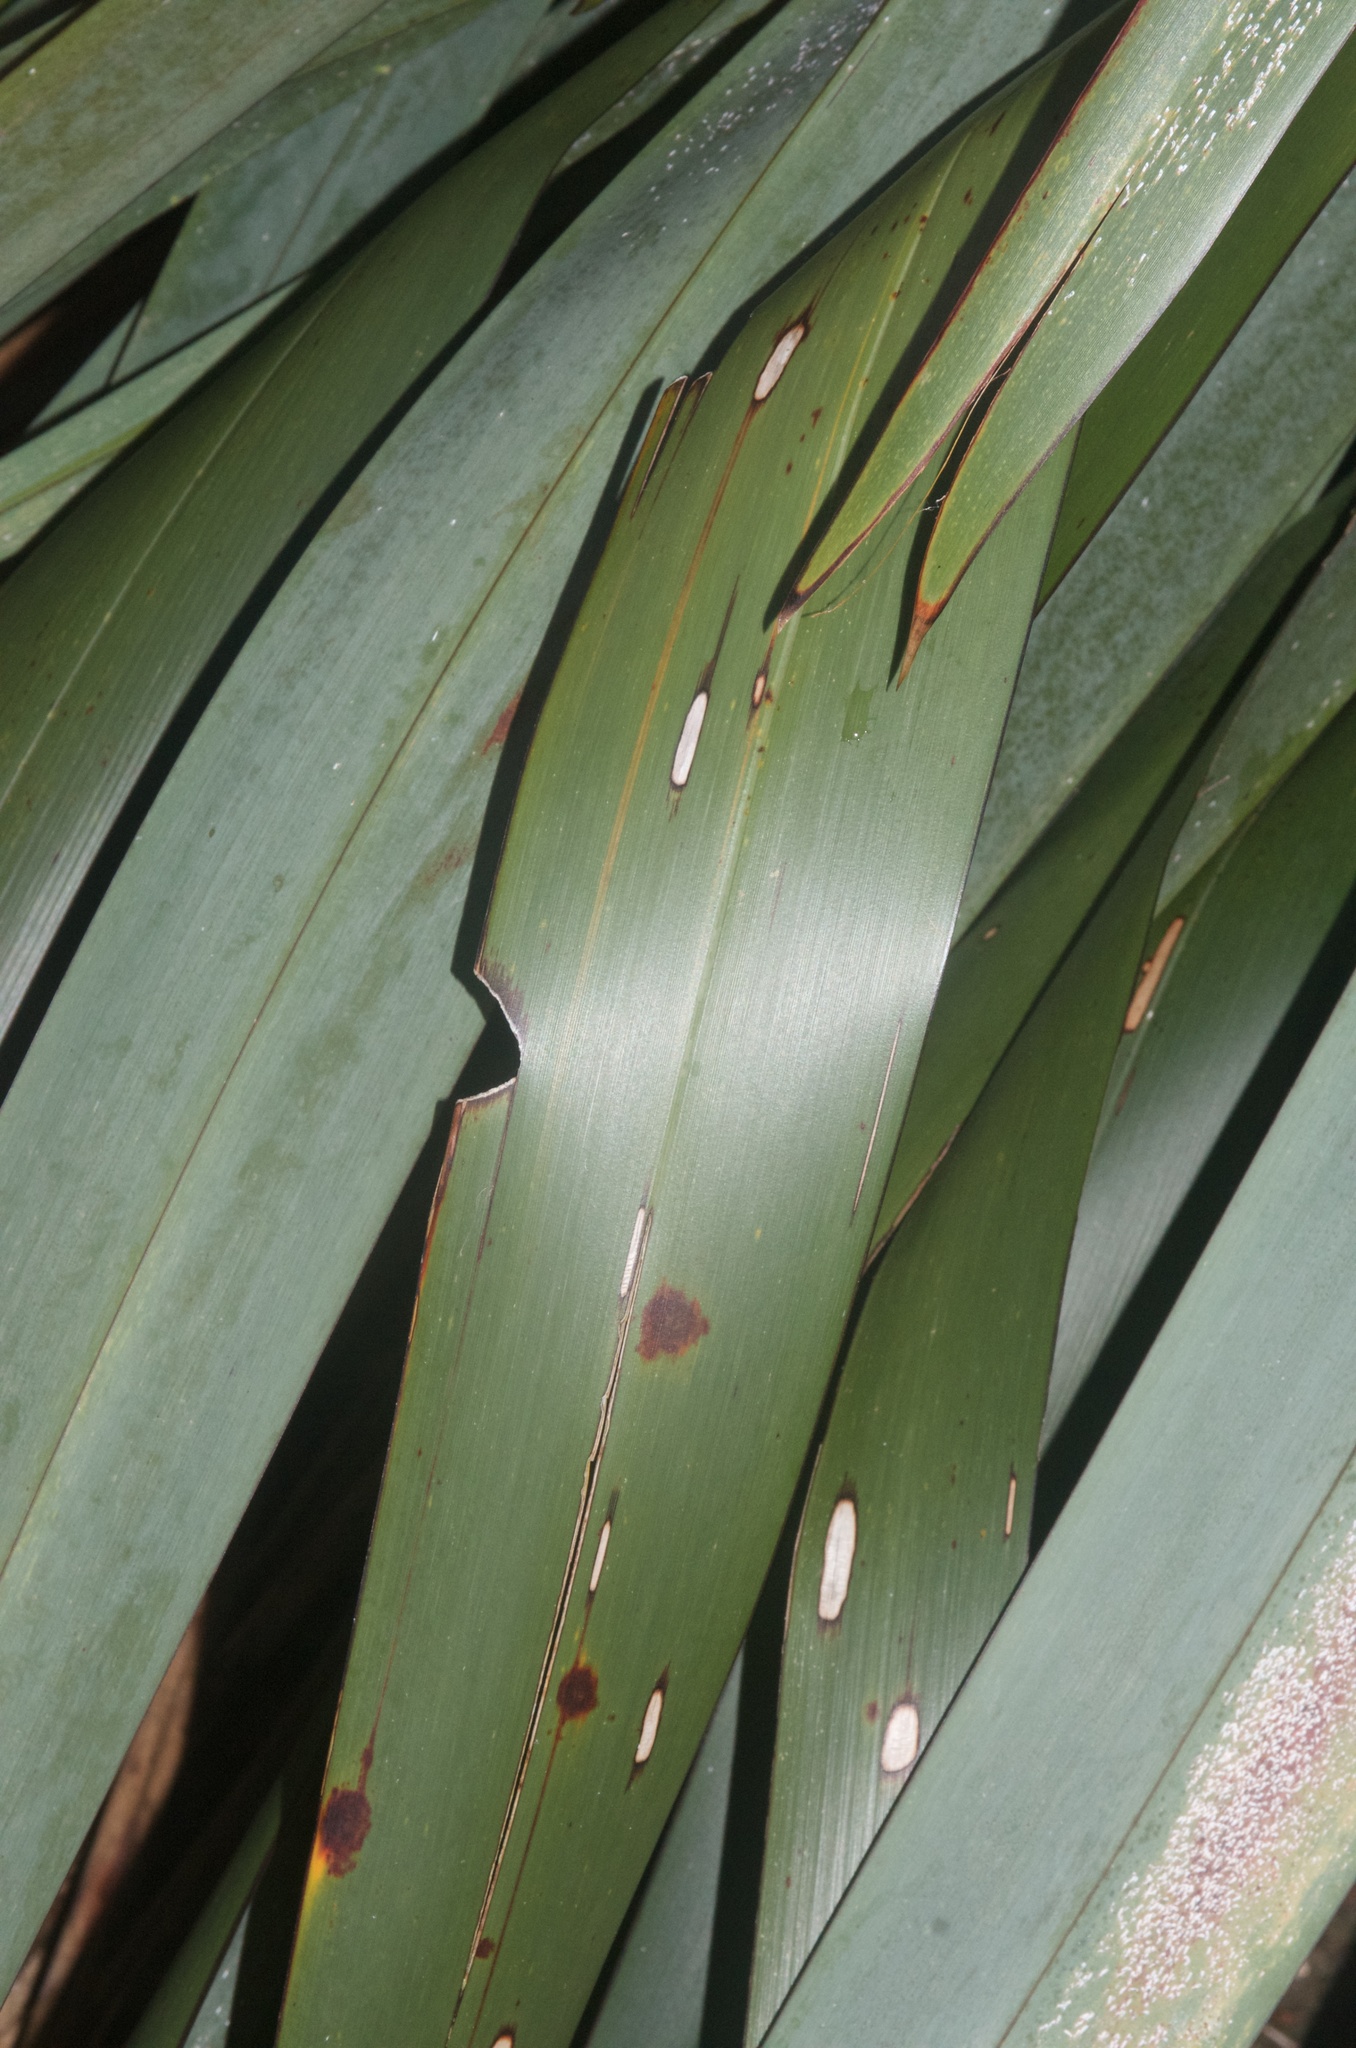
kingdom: Animalia
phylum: Arthropoda
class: Insecta
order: Lepidoptera
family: Noctuidae
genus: Ichneutica
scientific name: Ichneutica
